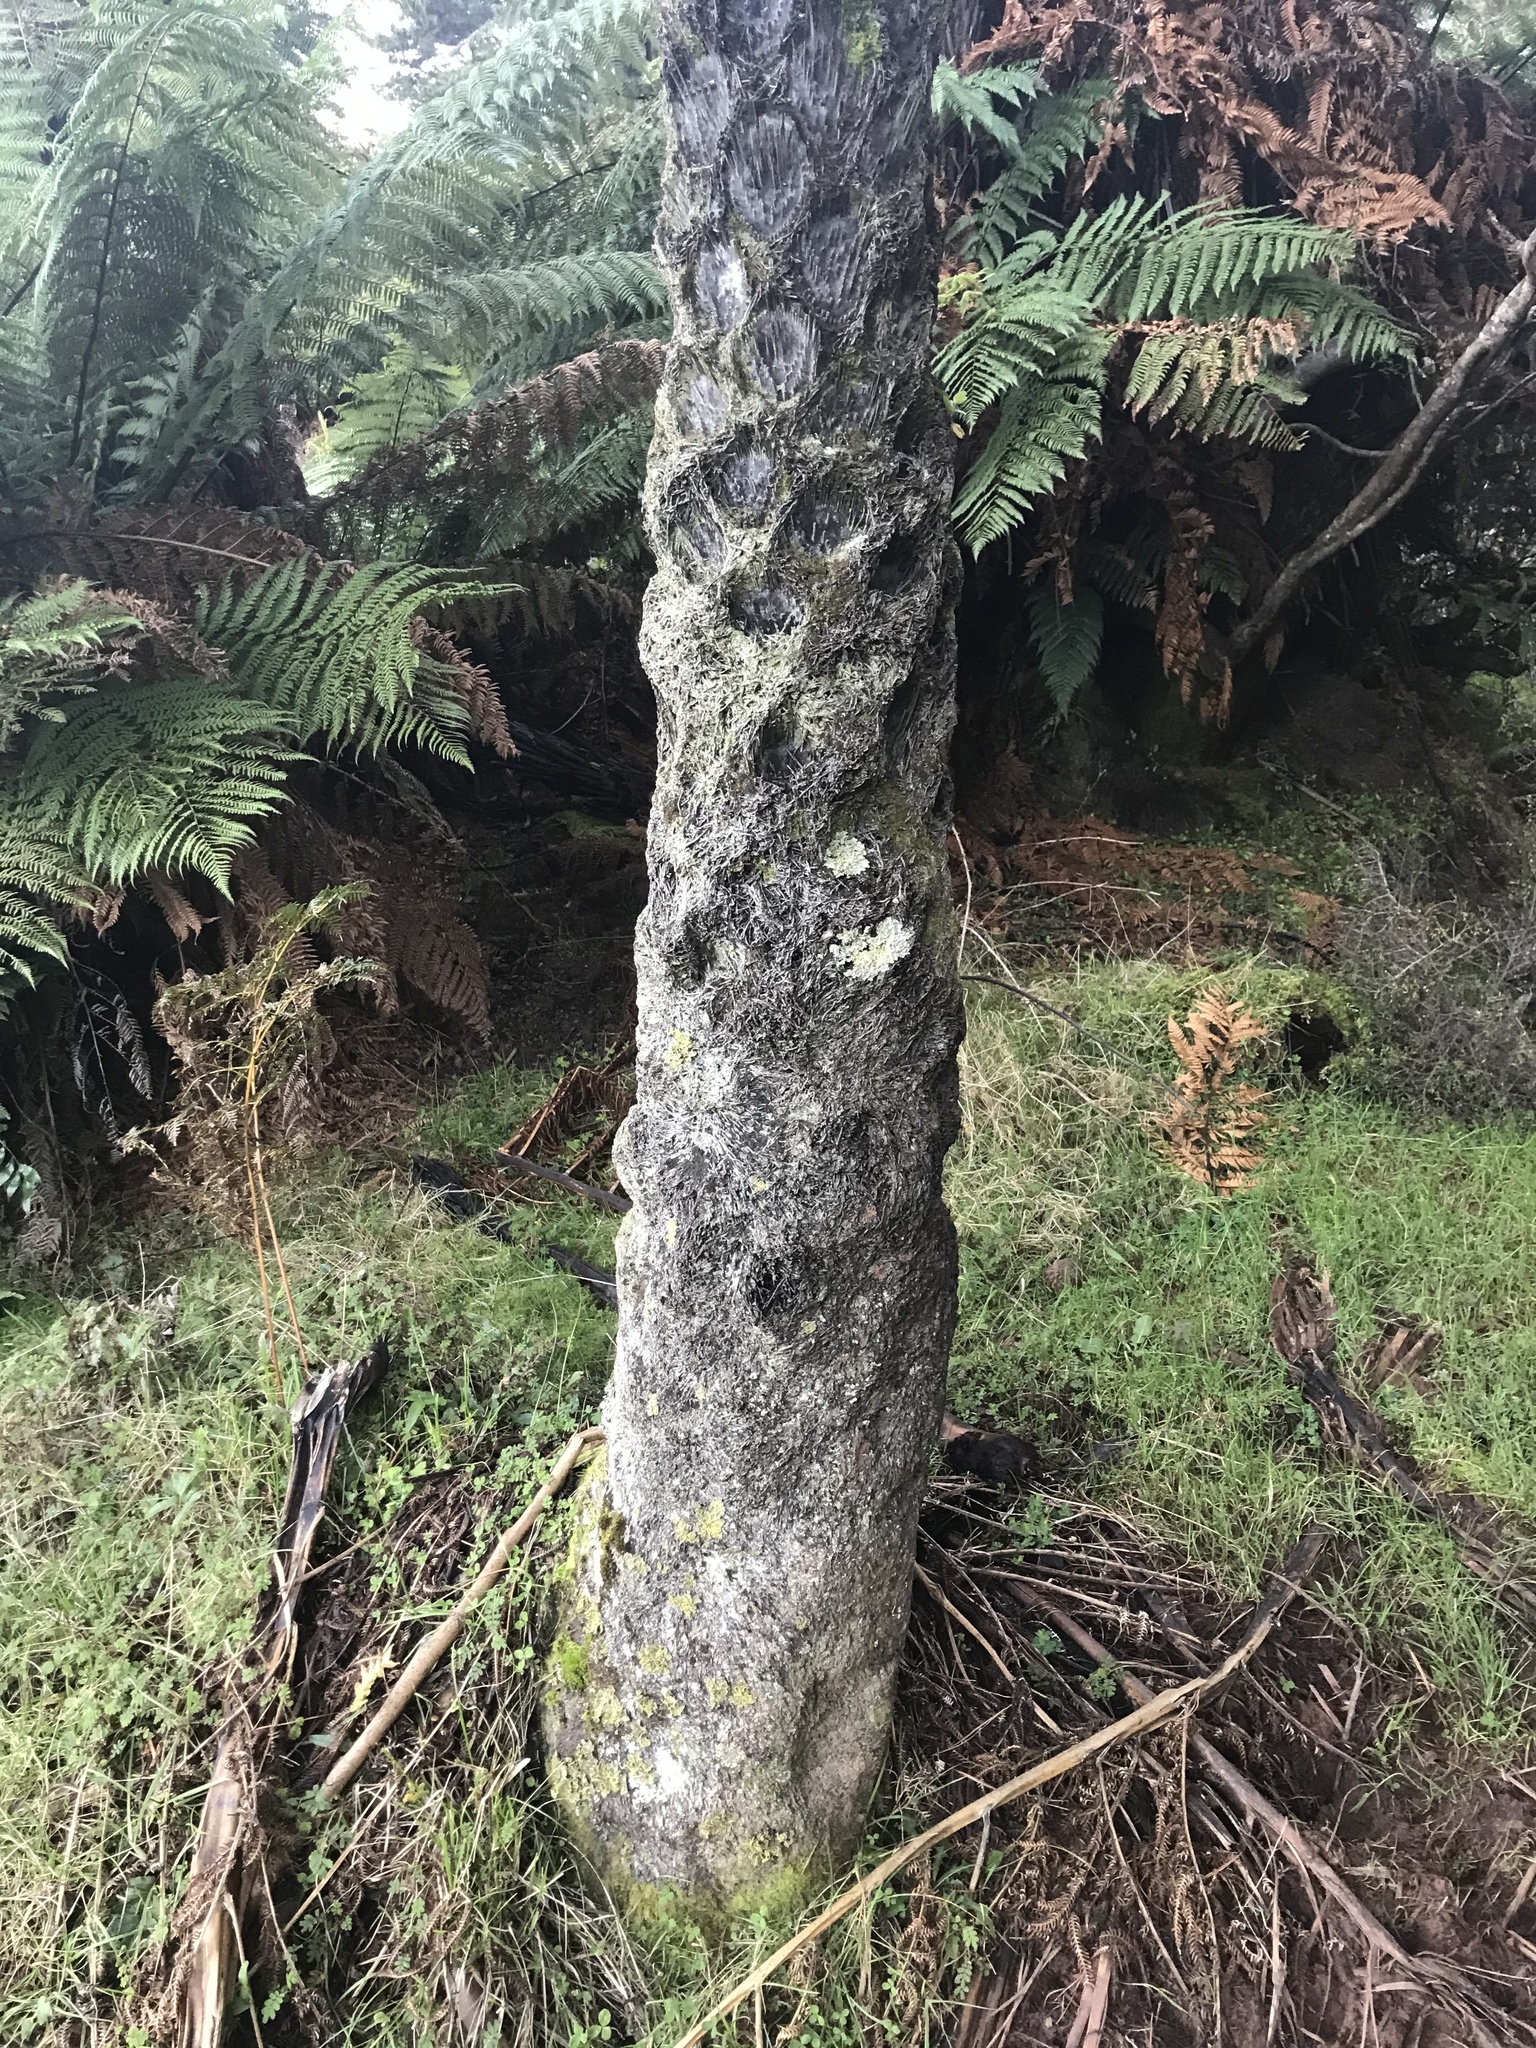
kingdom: Plantae
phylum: Tracheophyta
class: Polypodiopsida
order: Cyatheales
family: Cyatheaceae
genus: Sphaeropteris
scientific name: Sphaeropteris medullaris
